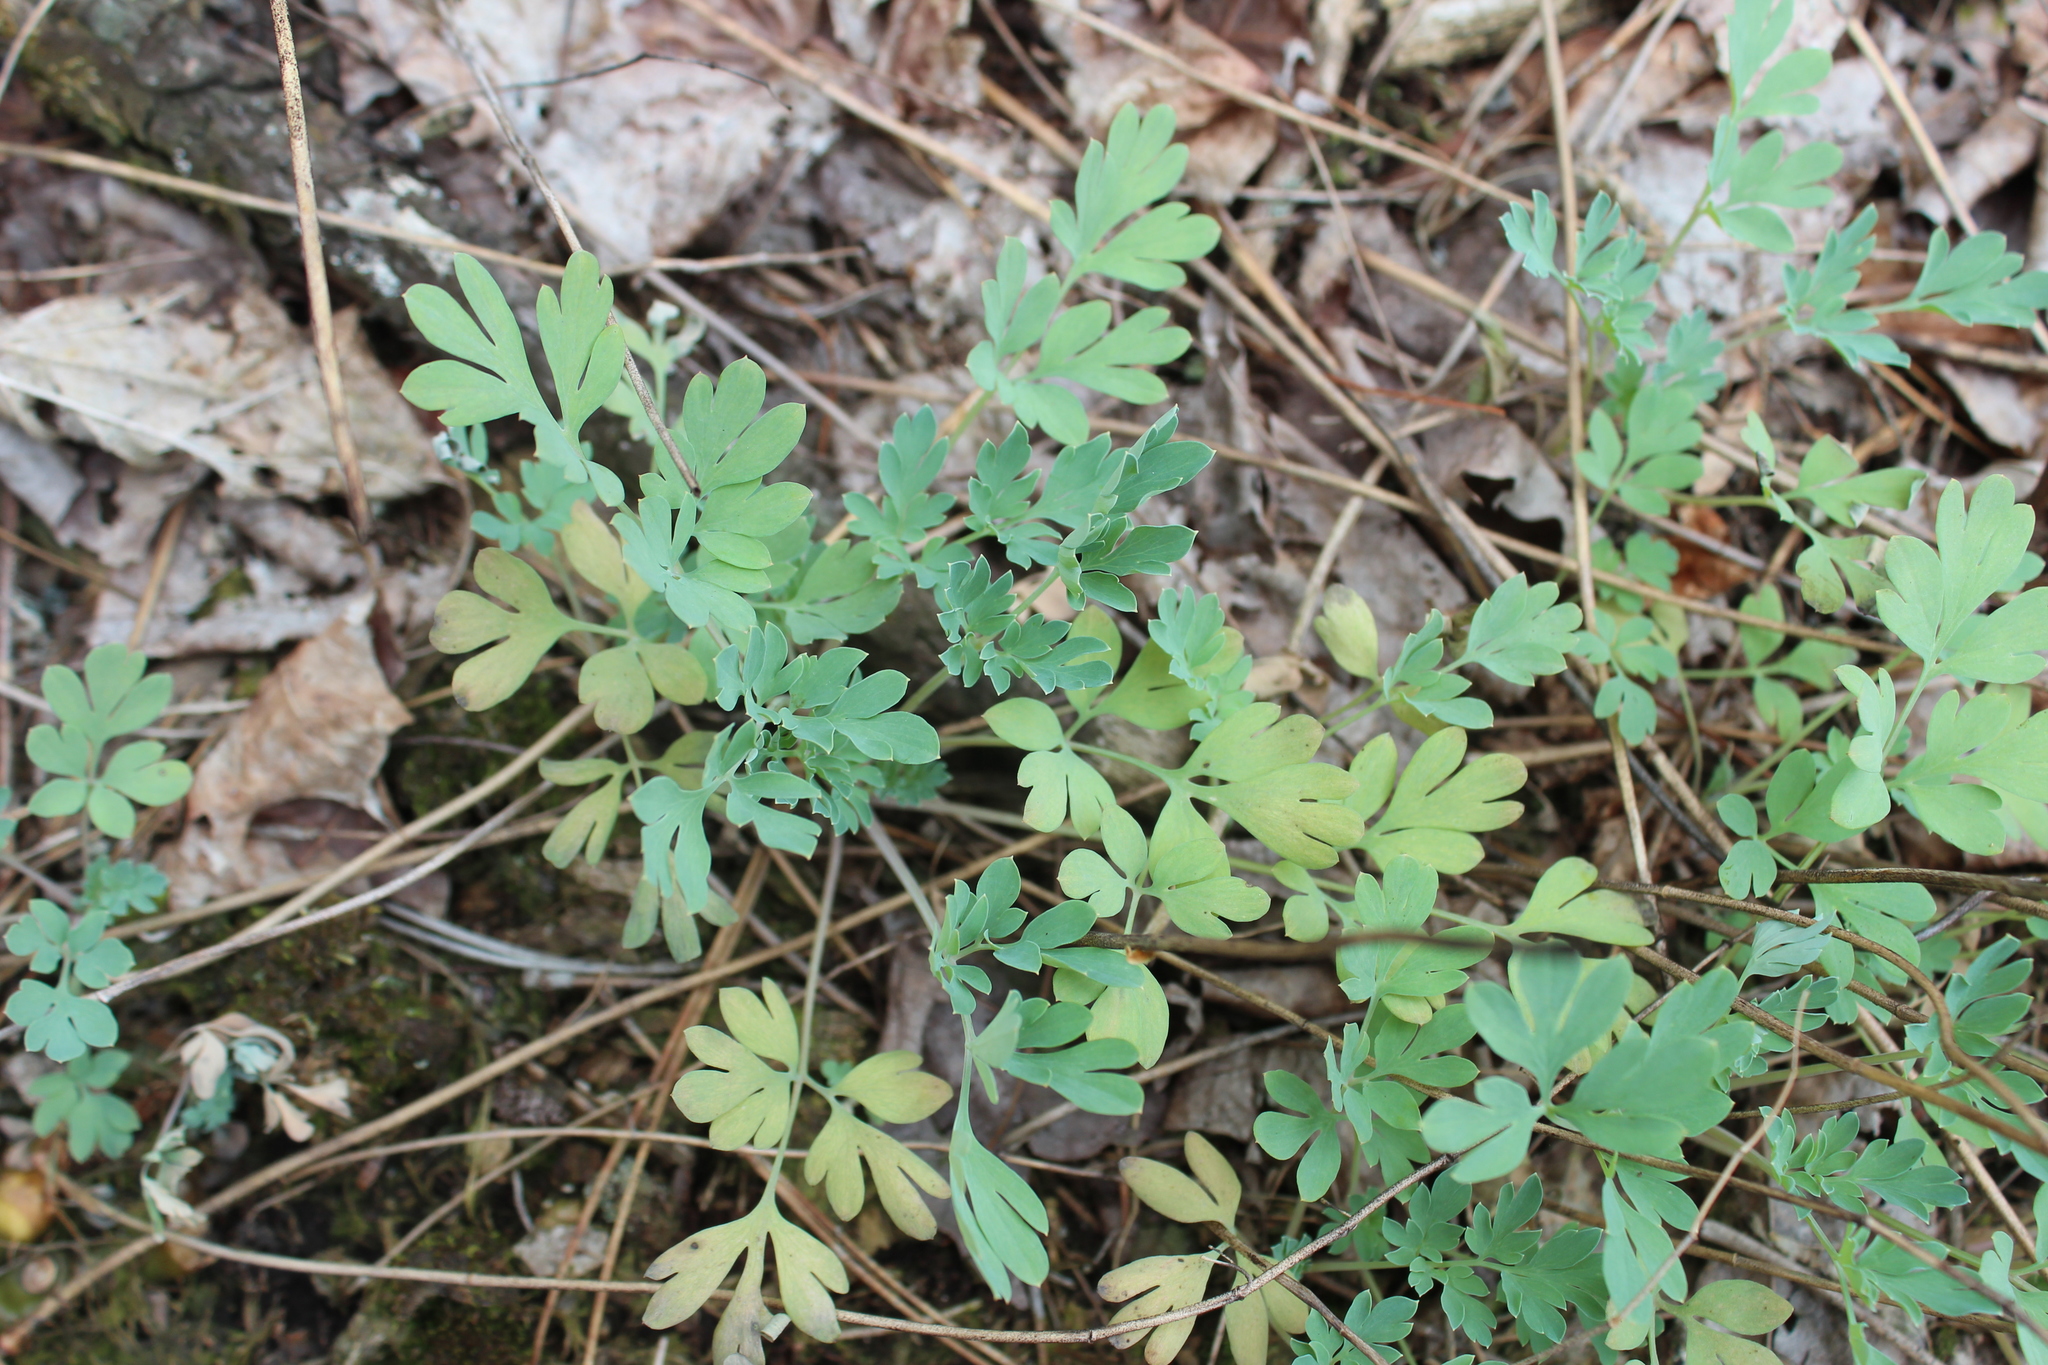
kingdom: Plantae
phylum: Tracheophyta
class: Magnoliopsida
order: Ranunculales
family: Papaveraceae
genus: Capnoides
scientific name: Capnoides sempervirens
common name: Rock harlequin
